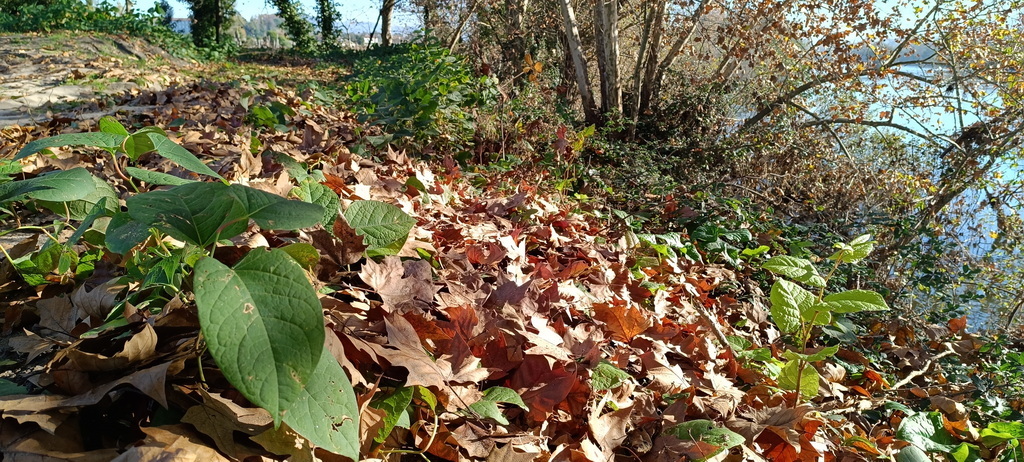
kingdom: Plantae
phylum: Tracheophyta
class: Magnoliopsida
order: Caryophyllales
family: Polygonaceae
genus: Reynoutria
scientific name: Reynoutria japonica
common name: Japanese knotweed
